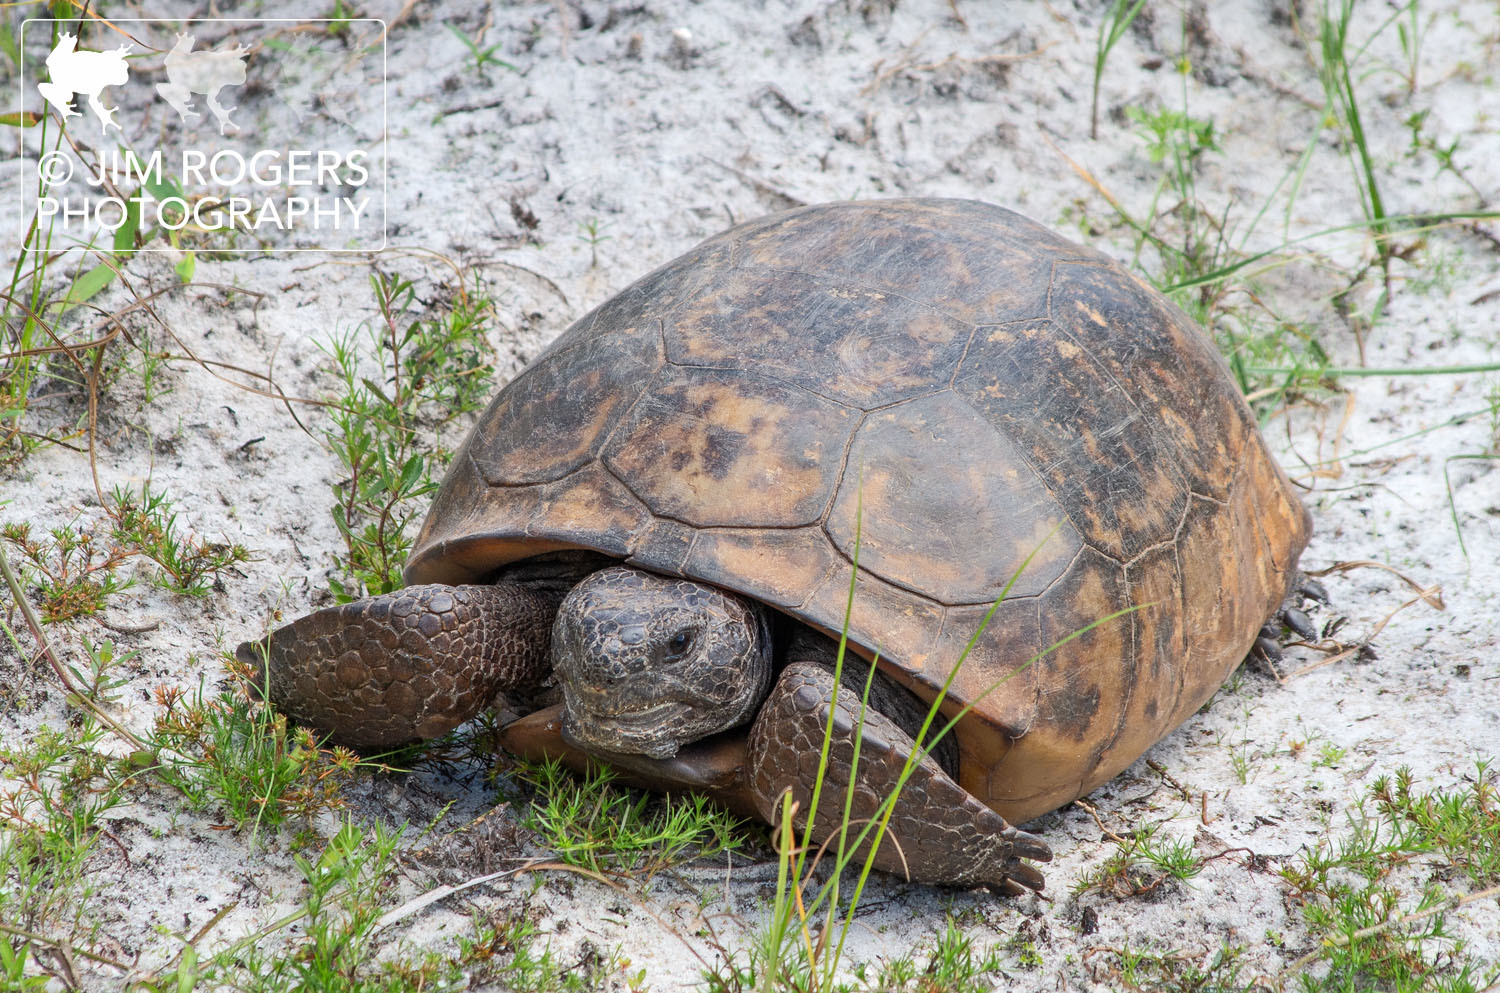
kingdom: Animalia
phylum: Chordata
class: Testudines
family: Testudinidae
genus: Gopherus
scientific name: Gopherus polyphemus
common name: Florida gopher tortoise
